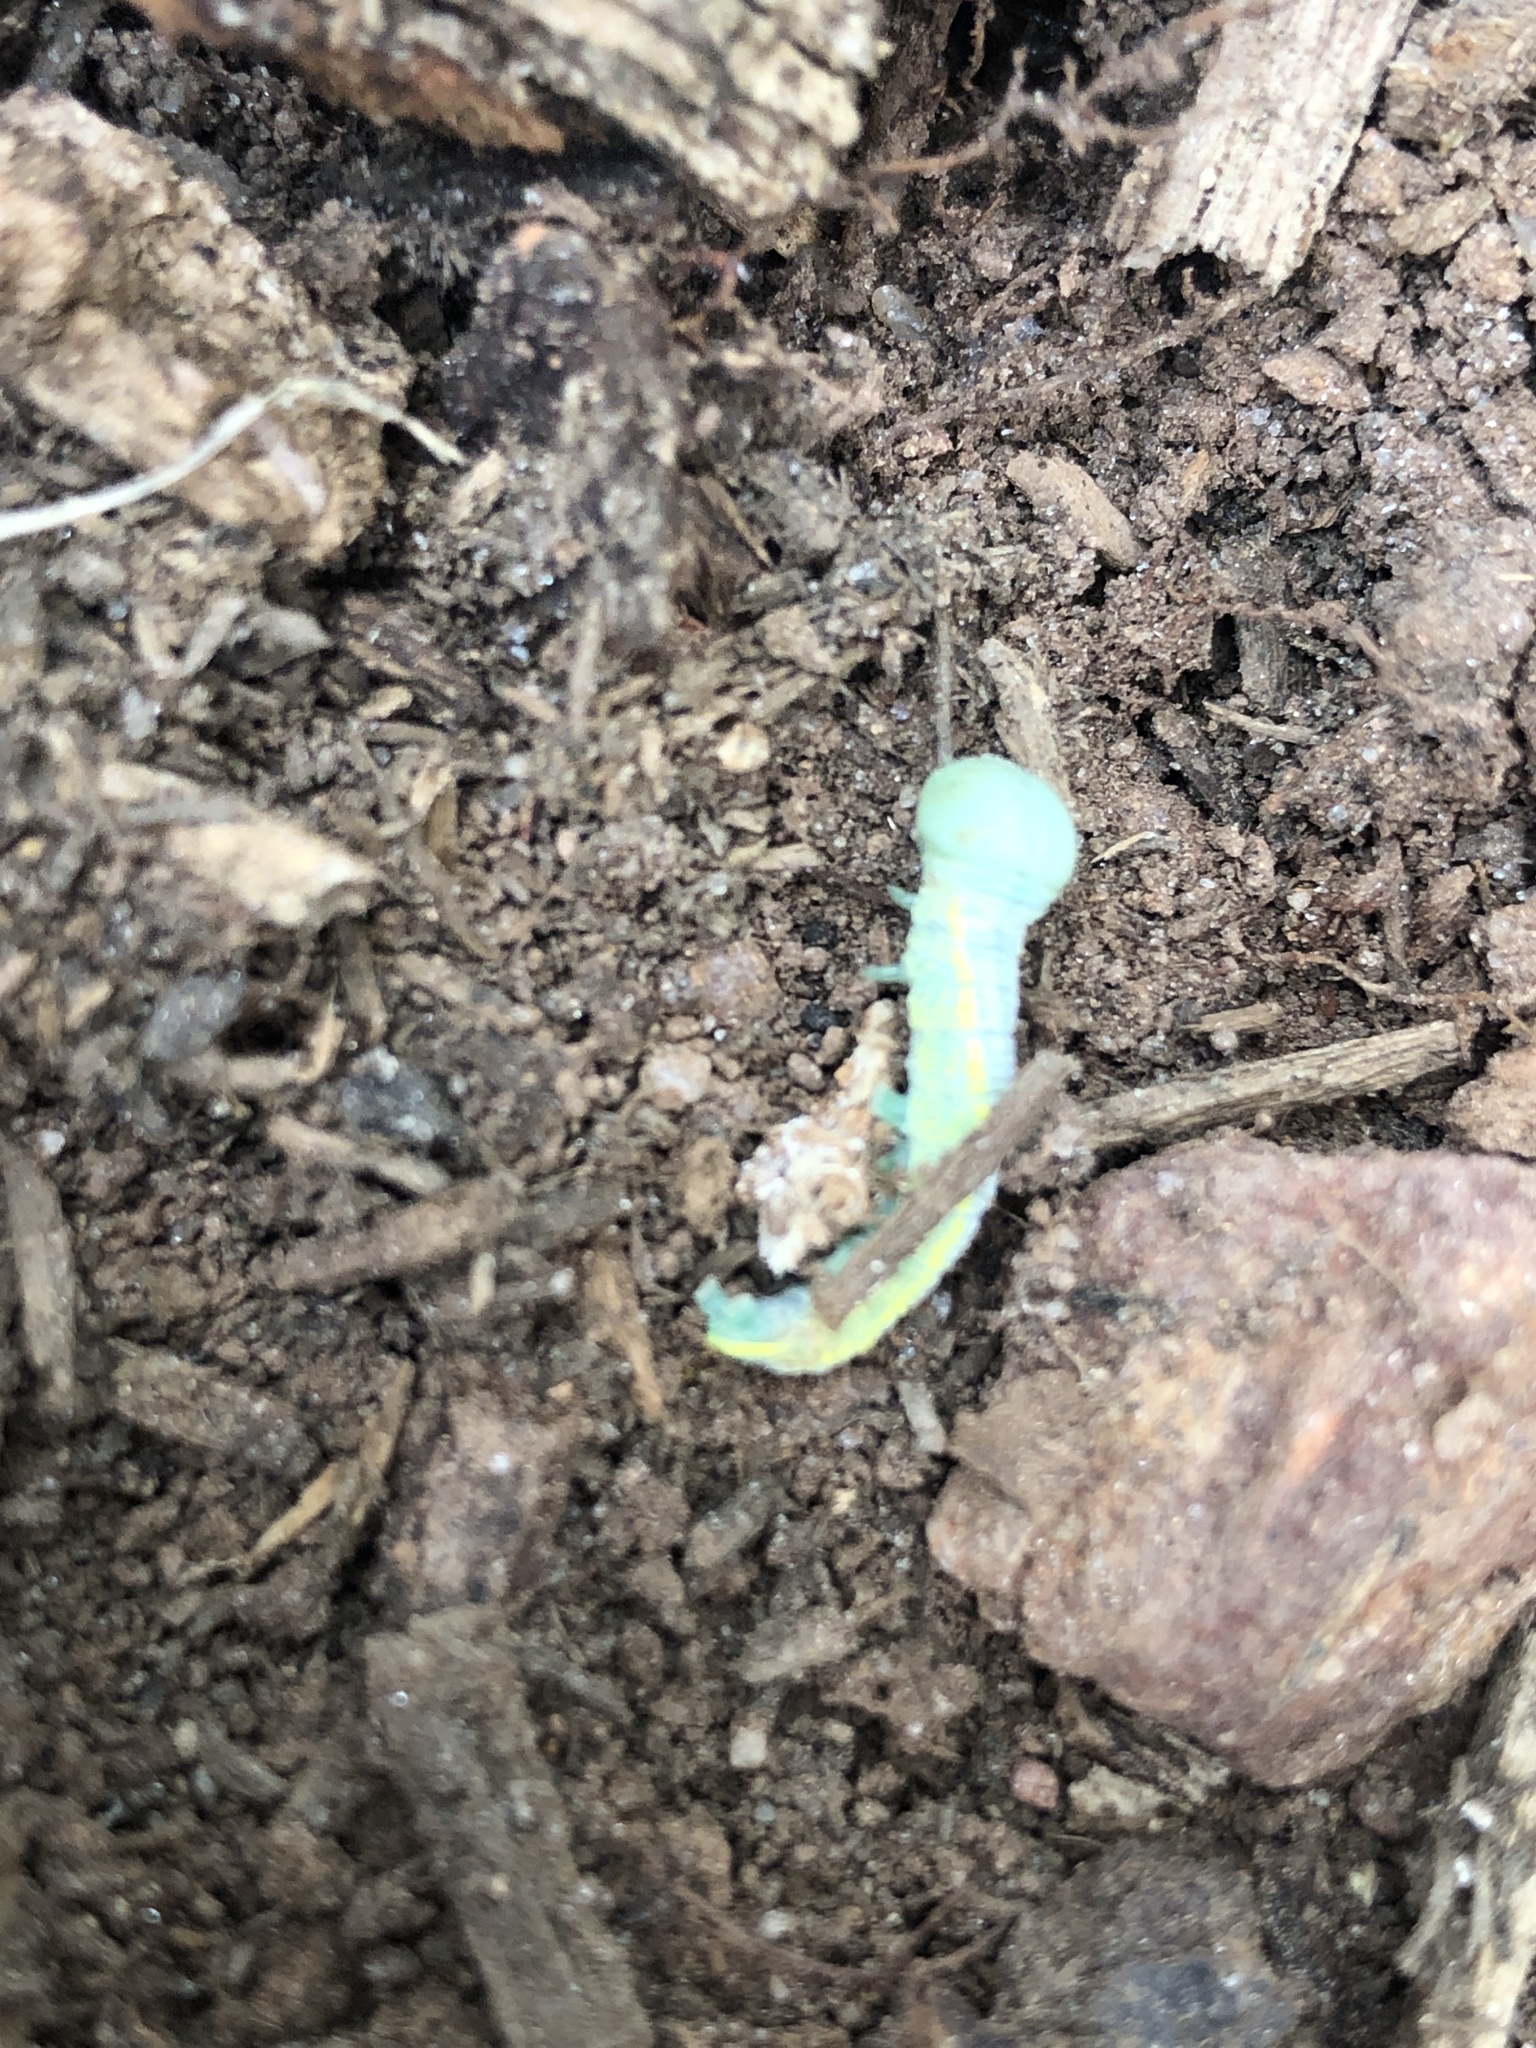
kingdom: Animalia
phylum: Arthropoda
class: Insecta
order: Lepidoptera
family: Notodontidae
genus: Nadata
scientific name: Nadata gibbosa
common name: White-dotted prominent
